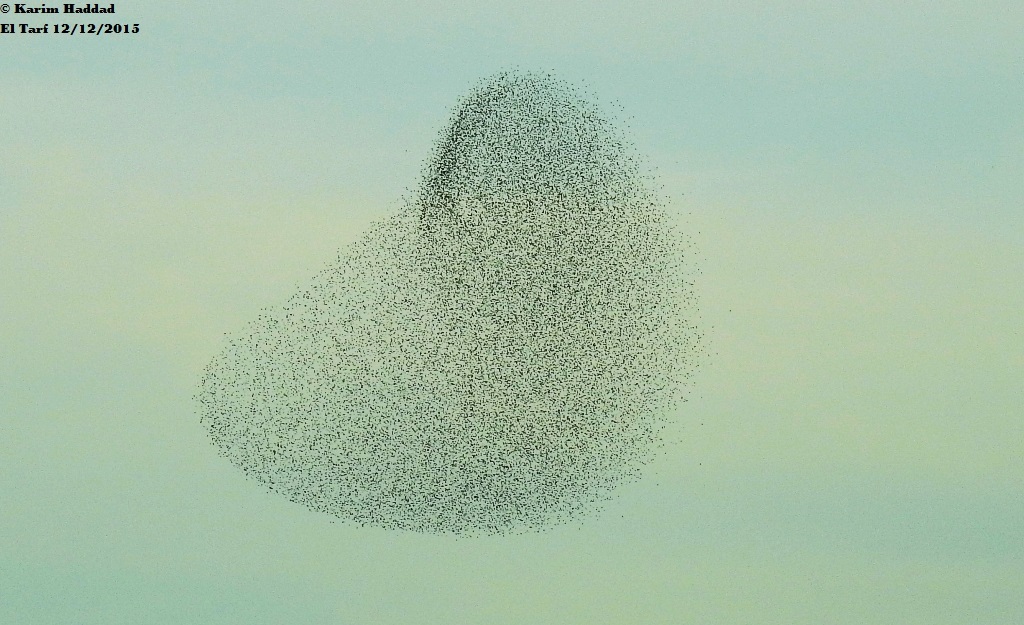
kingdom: Animalia
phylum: Chordata
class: Aves
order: Passeriformes
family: Sturnidae
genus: Sturnus
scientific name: Sturnus vulgaris
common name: Common starling
